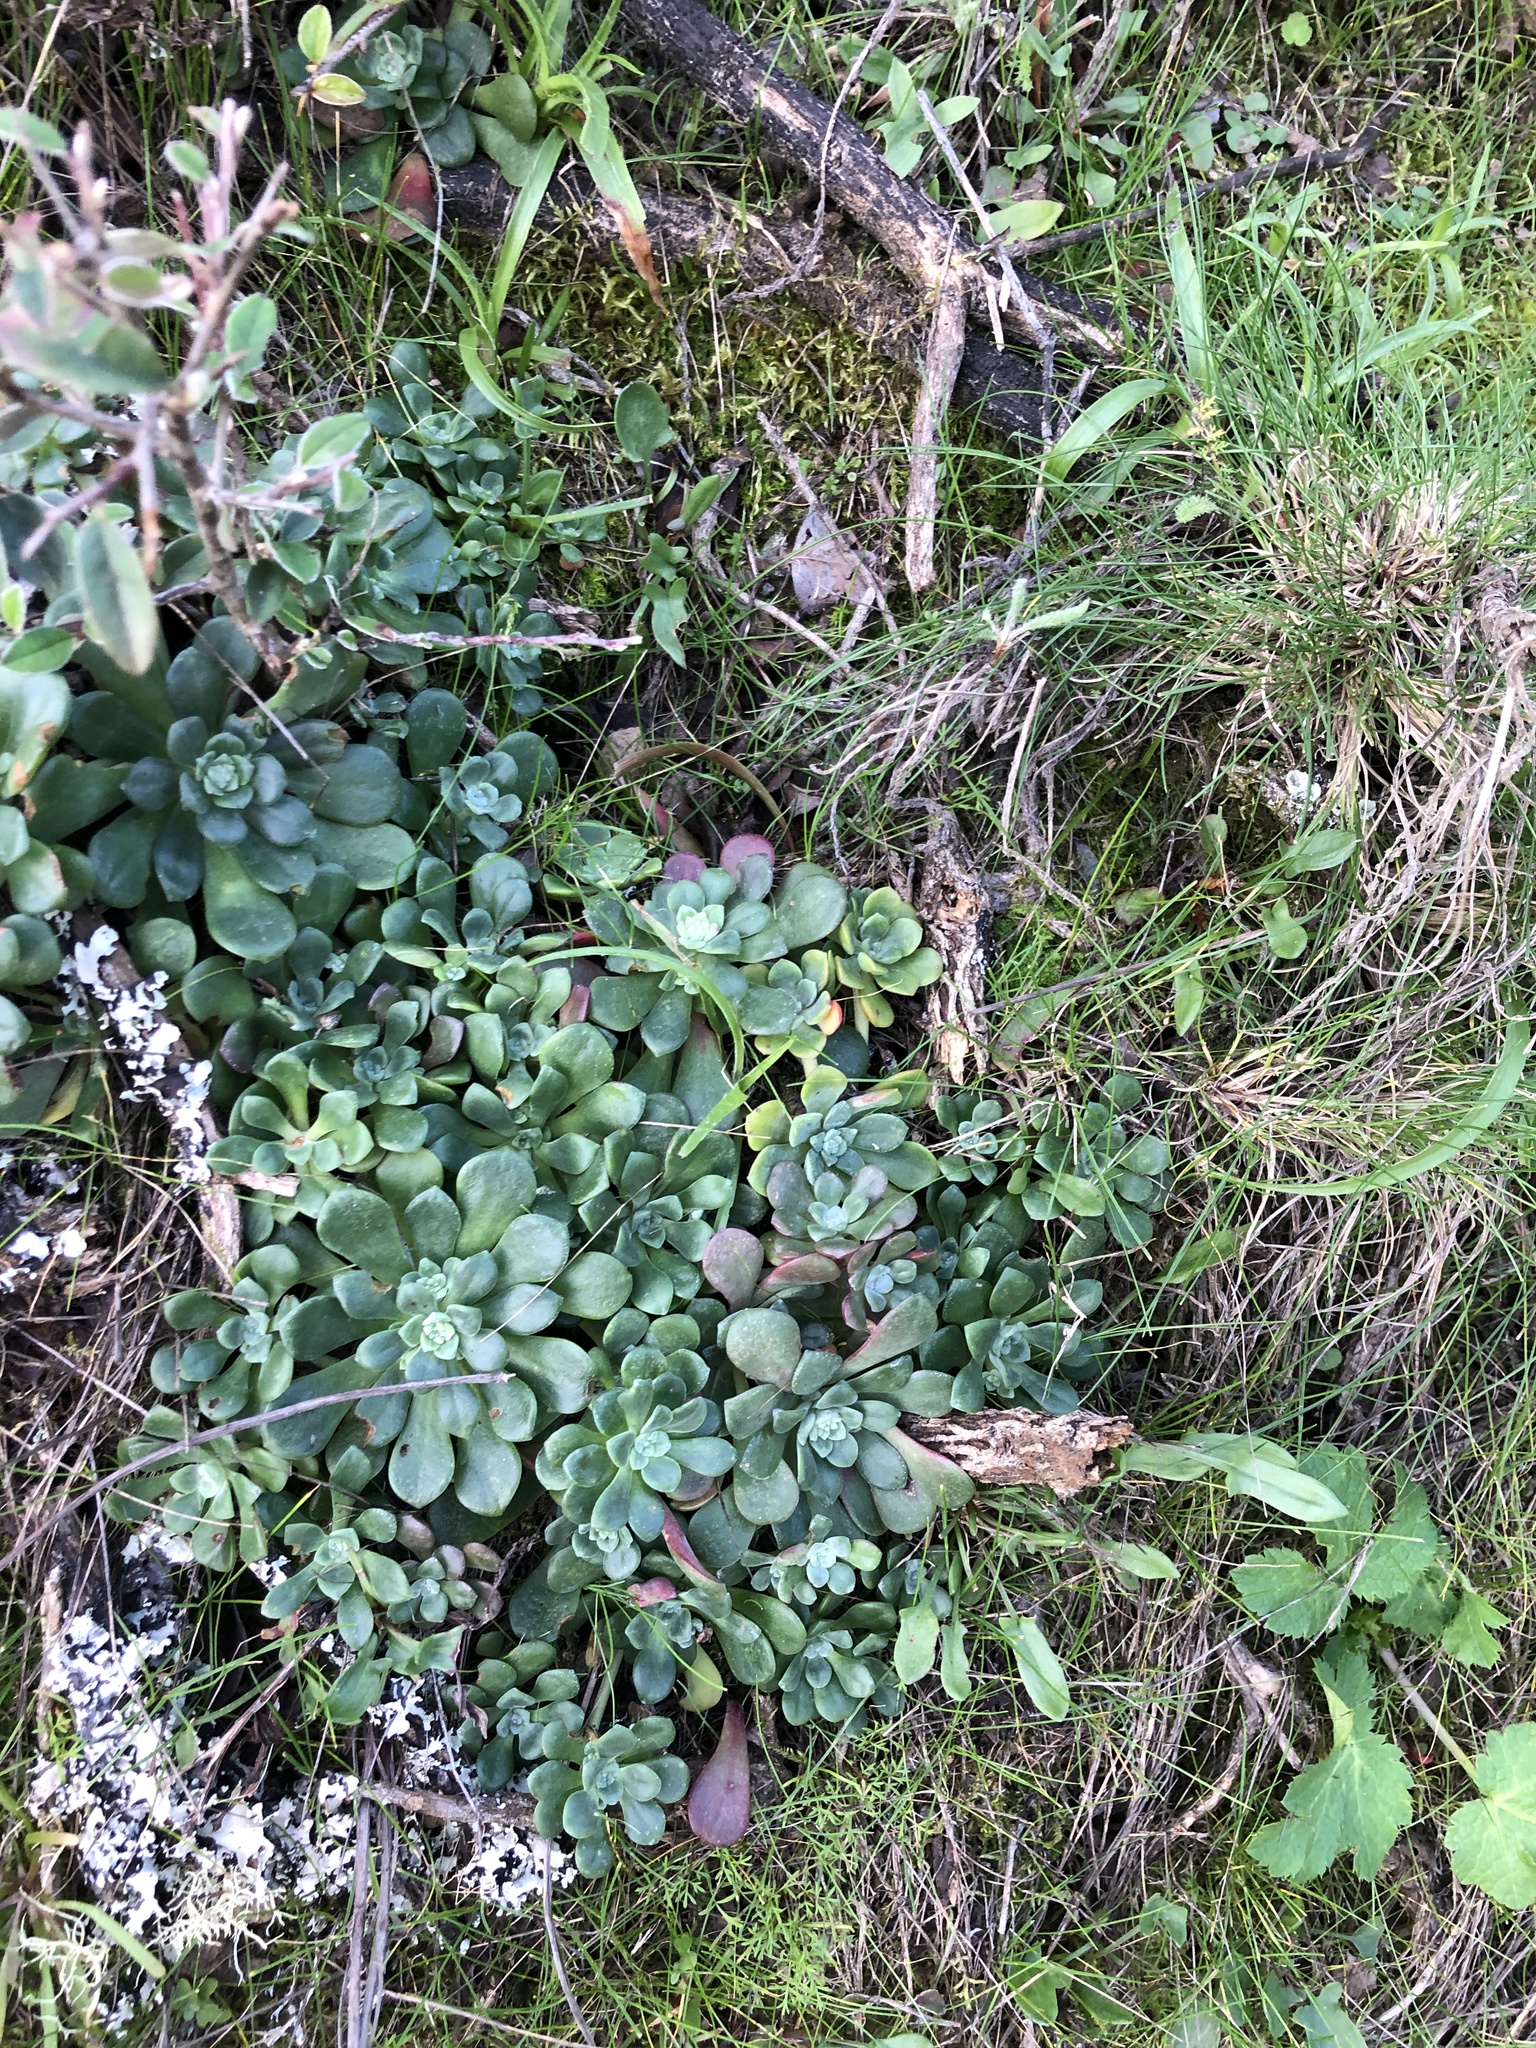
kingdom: Plantae
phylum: Tracheophyta
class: Magnoliopsida
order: Saxifragales
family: Crassulaceae
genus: Sedum
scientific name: Sedum spathulifolium
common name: Colorado stonecrop
